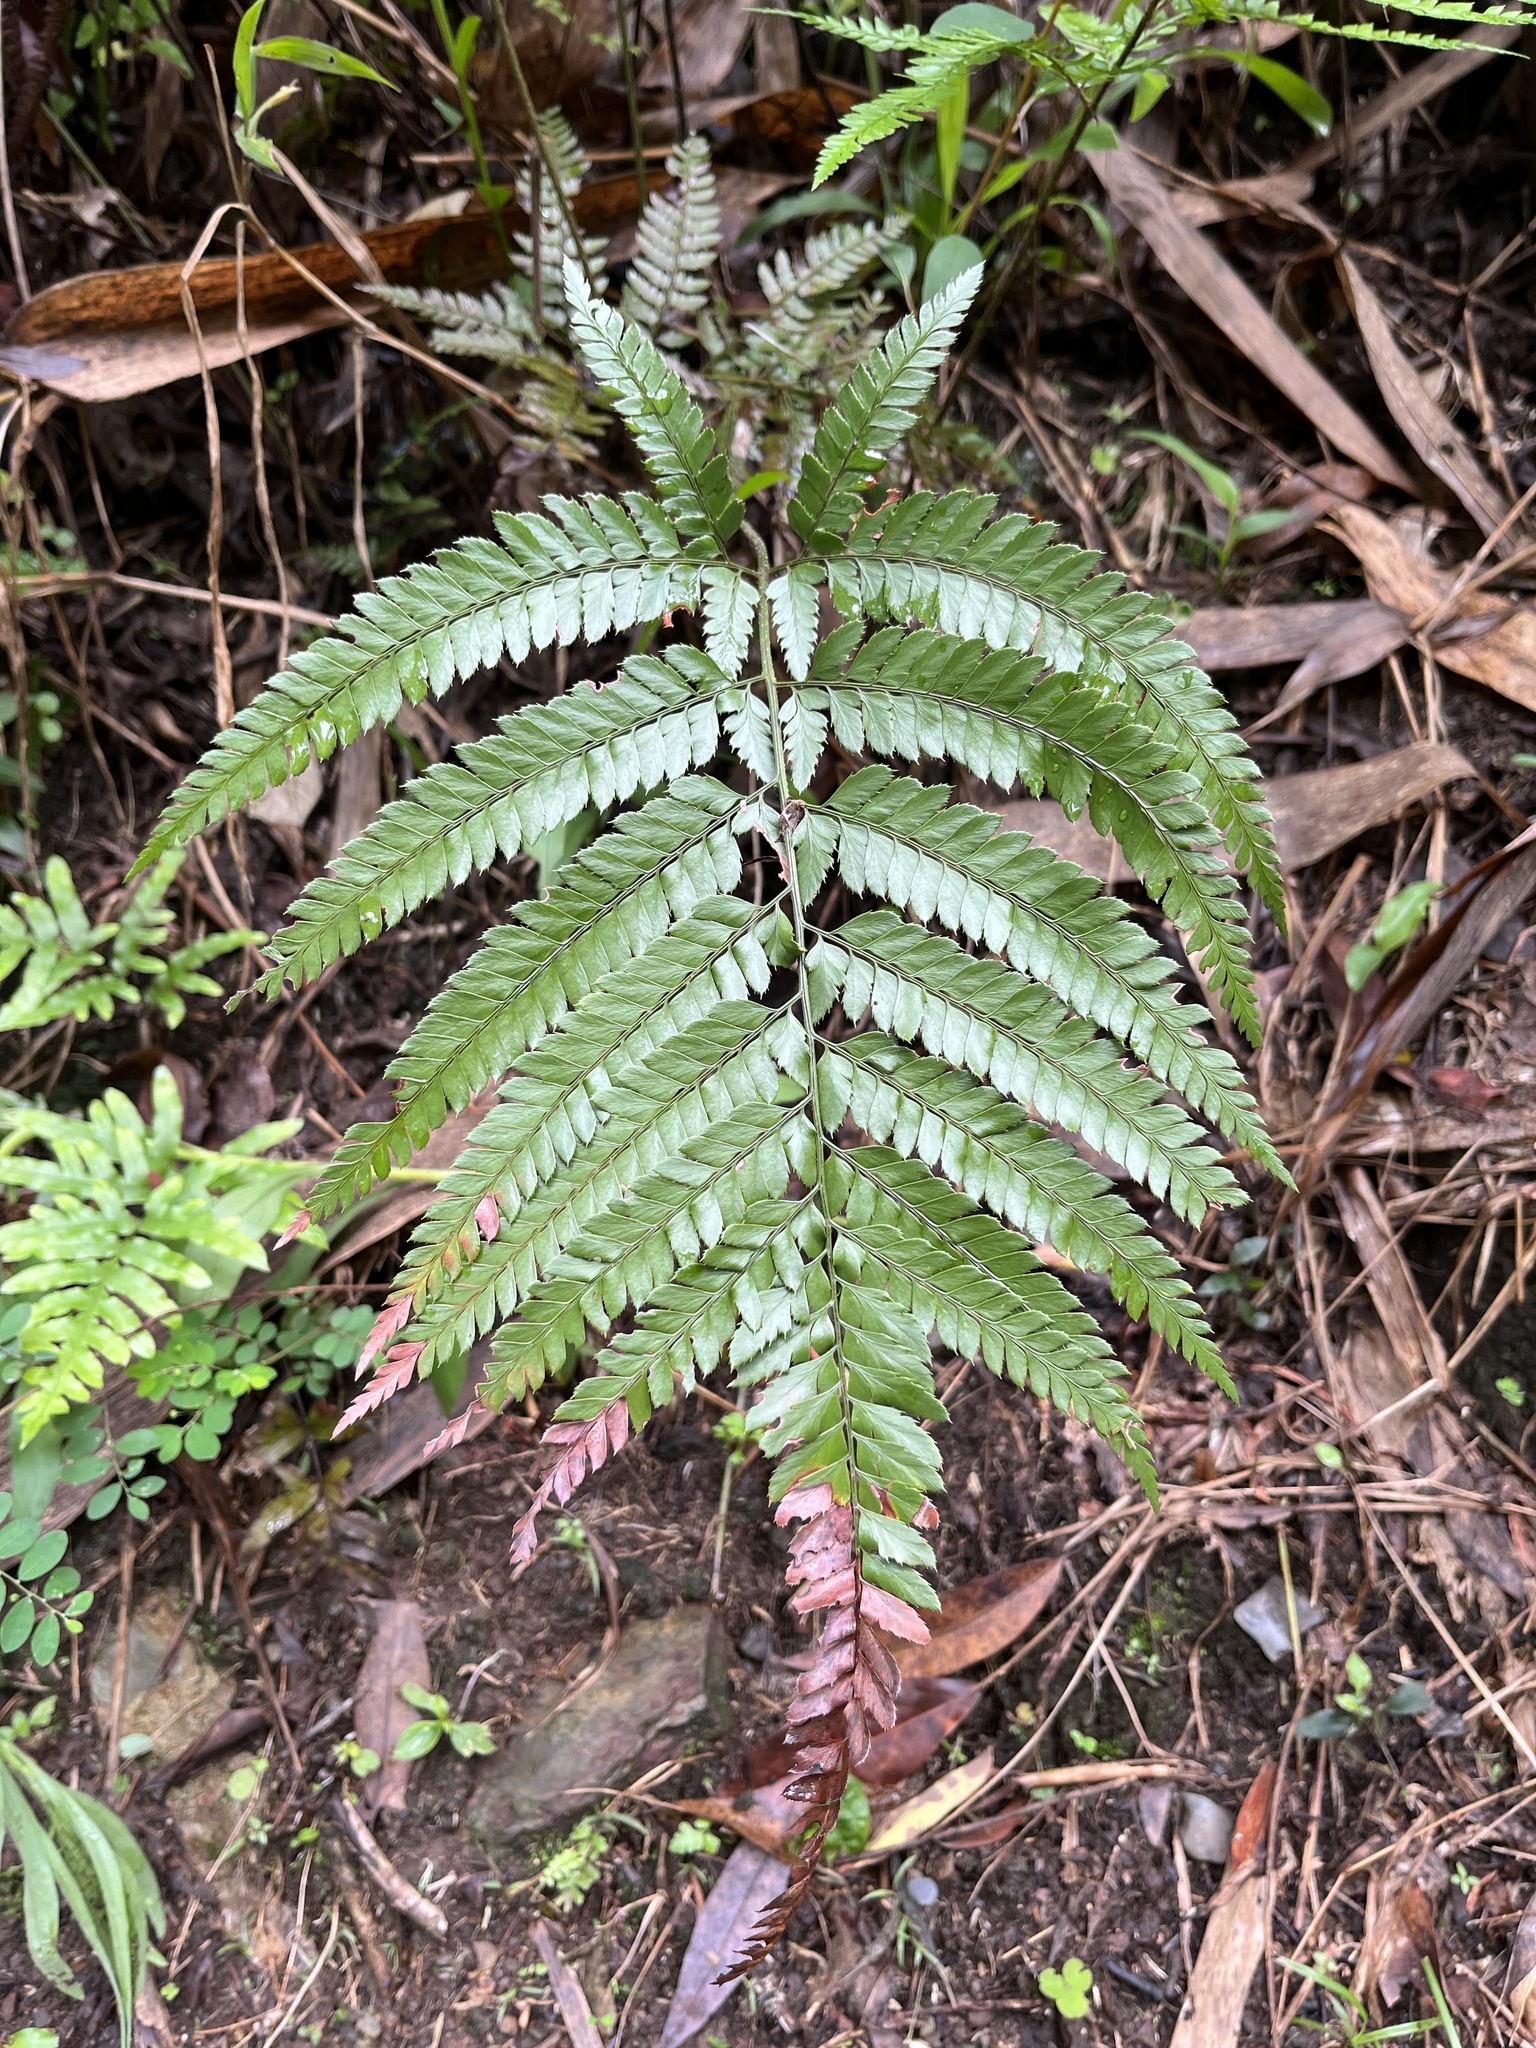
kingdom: Plantae
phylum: Tracheophyta
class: Polypodiopsida
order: Polypodiales
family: Dryopteridaceae
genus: Arachniodes
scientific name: Arachniodes aristata
